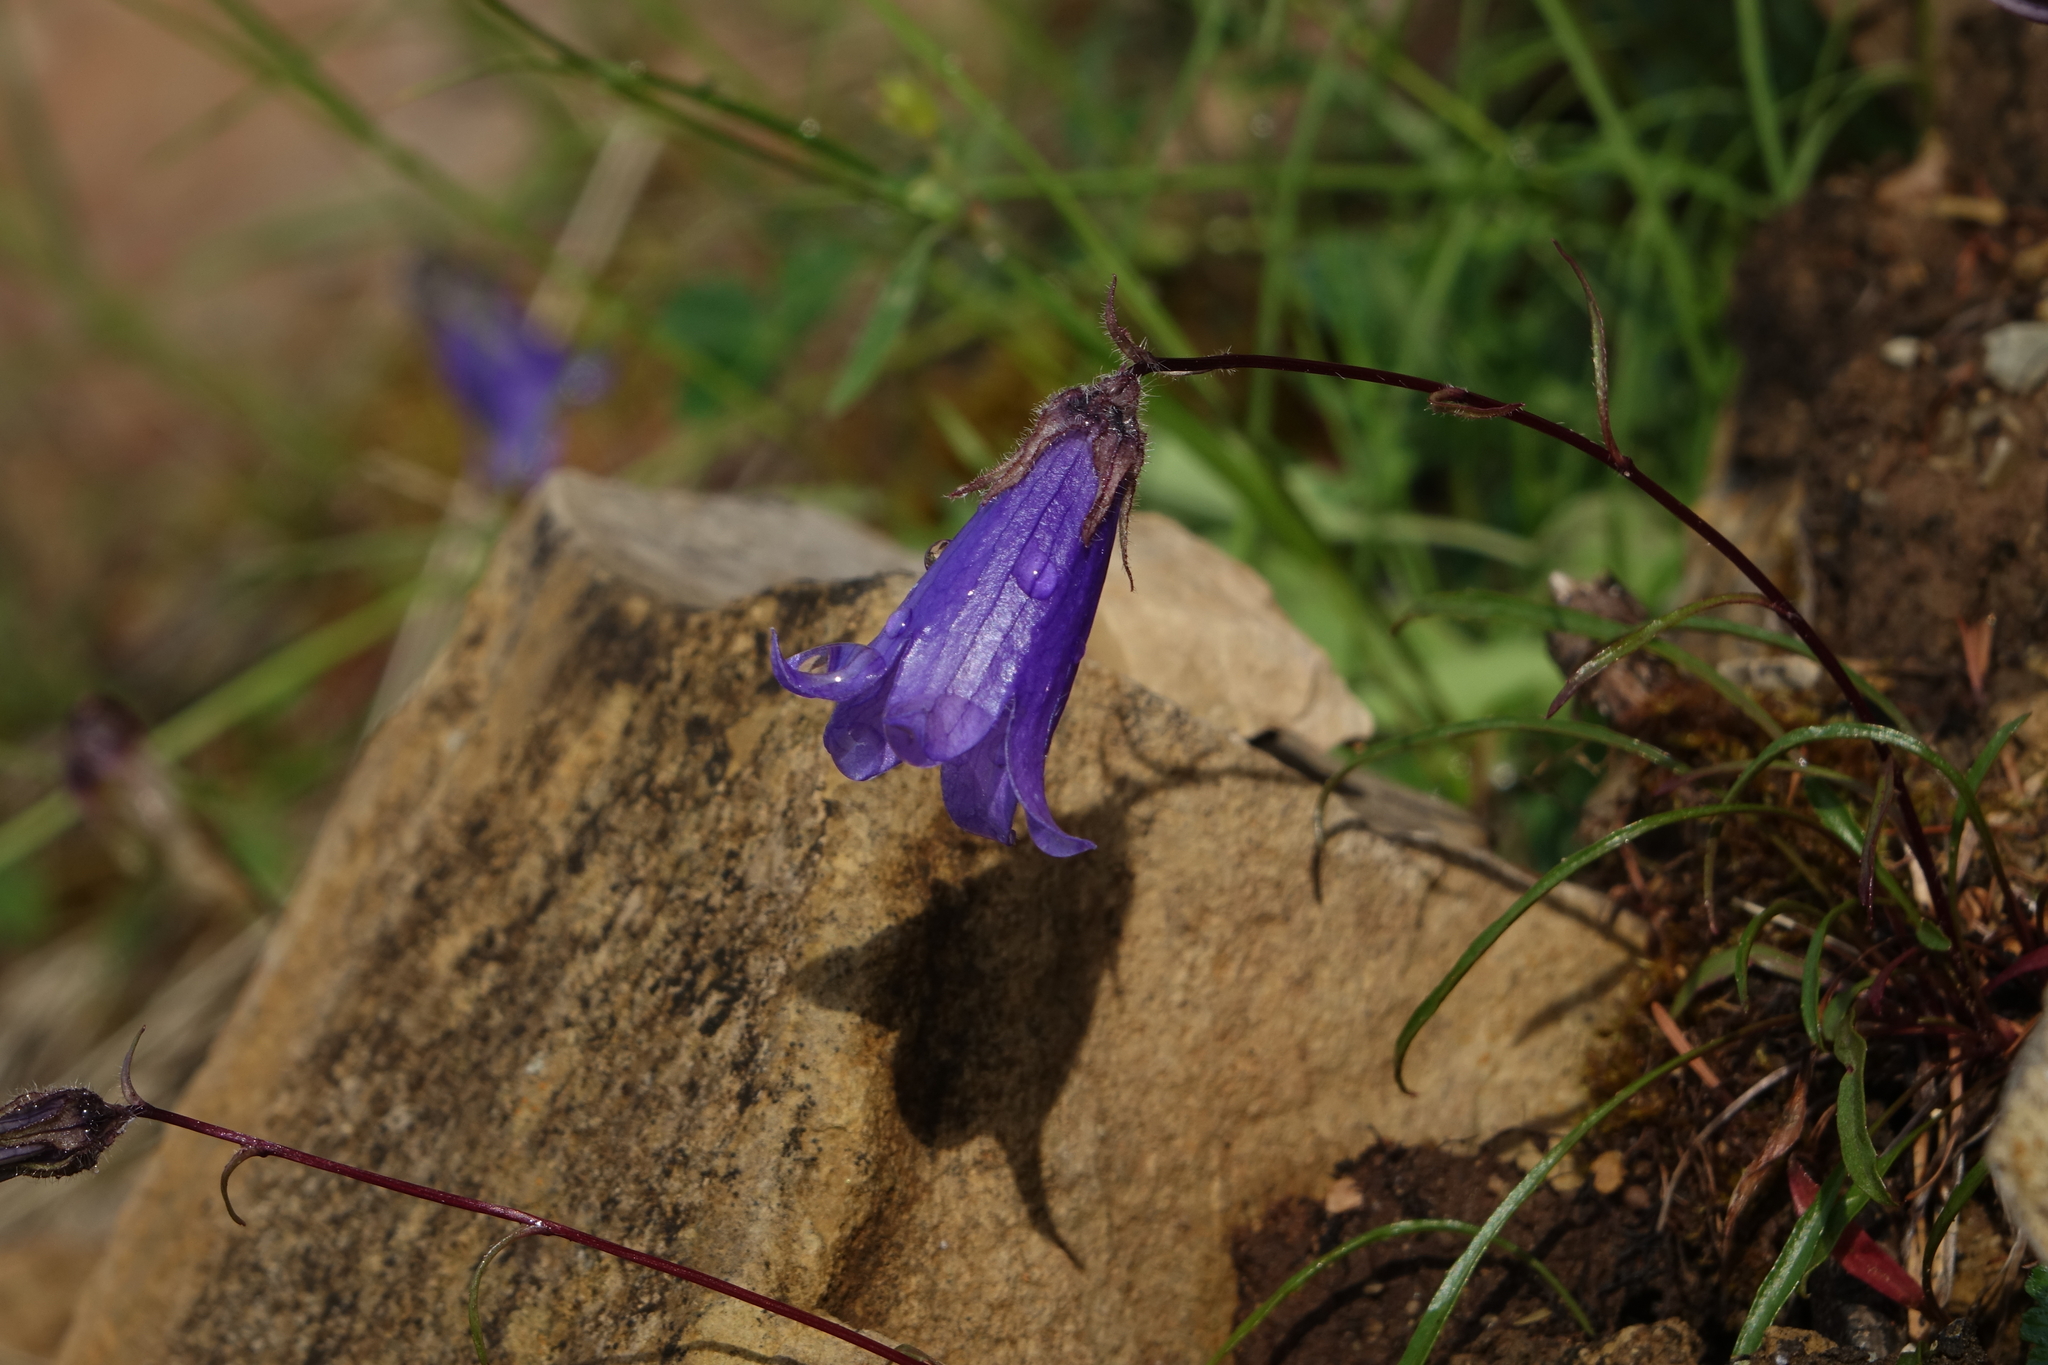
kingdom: Plantae
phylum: Tracheophyta
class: Magnoliopsida
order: Asterales
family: Campanulaceae
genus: Campanula
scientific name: Campanula dasyantha
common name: Hairyflower bellflower
